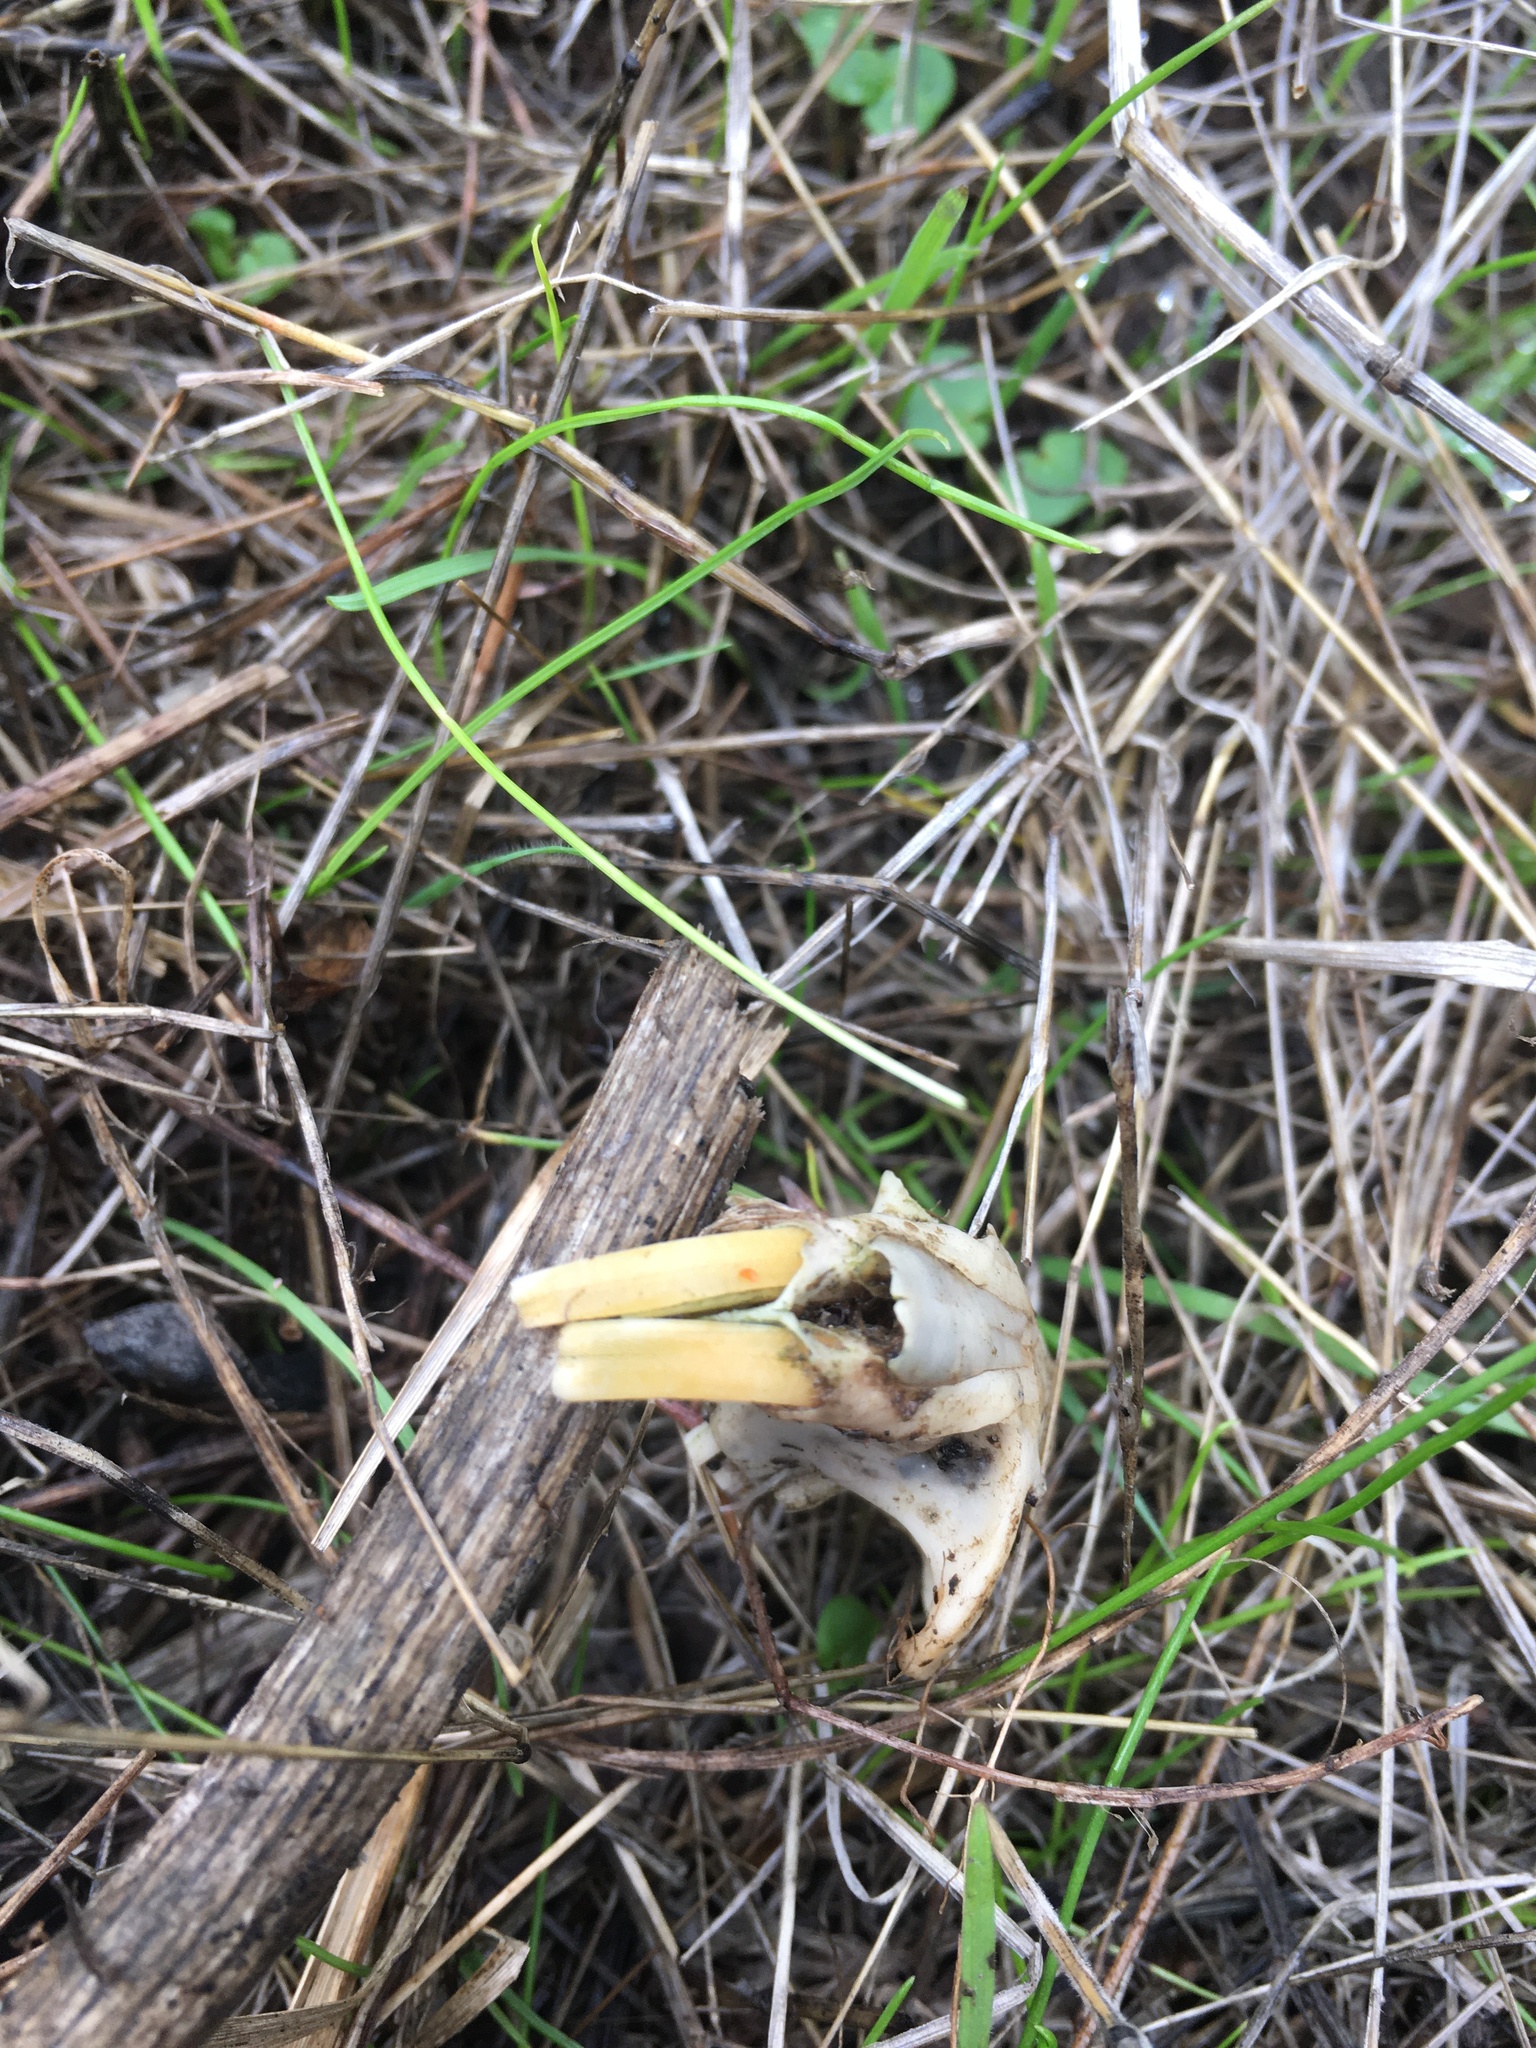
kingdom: Animalia
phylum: Chordata
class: Mammalia
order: Rodentia
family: Geomyidae
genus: Thomomys
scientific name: Thomomys bottae
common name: Botta's pocket gopher
